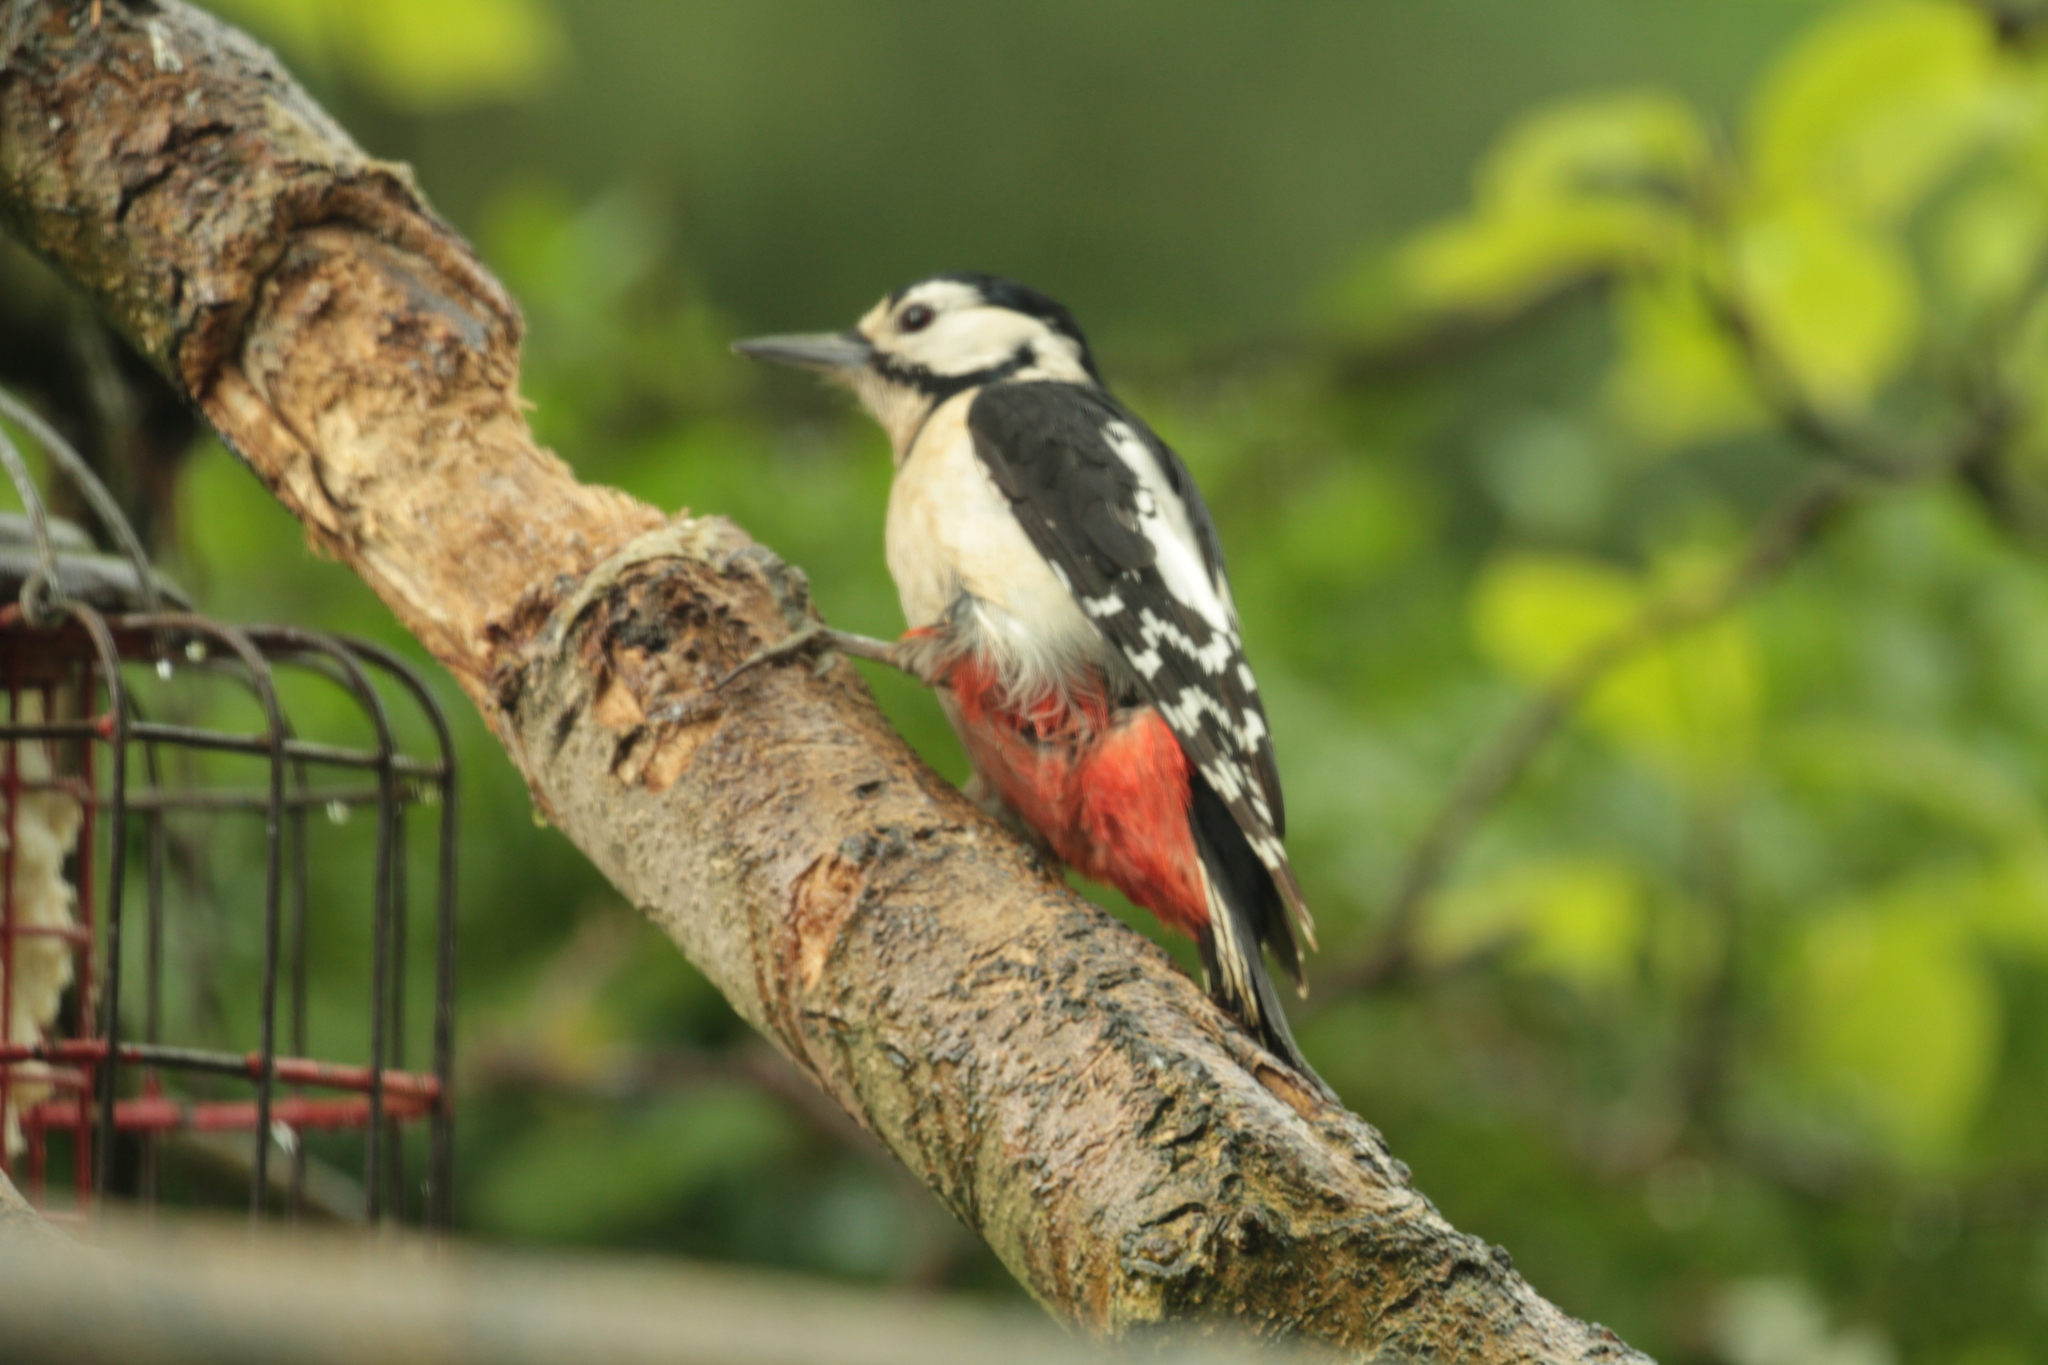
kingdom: Animalia
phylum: Chordata
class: Aves
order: Piciformes
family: Picidae
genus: Dendrocopos
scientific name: Dendrocopos major
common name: Great spotted woodpecker
